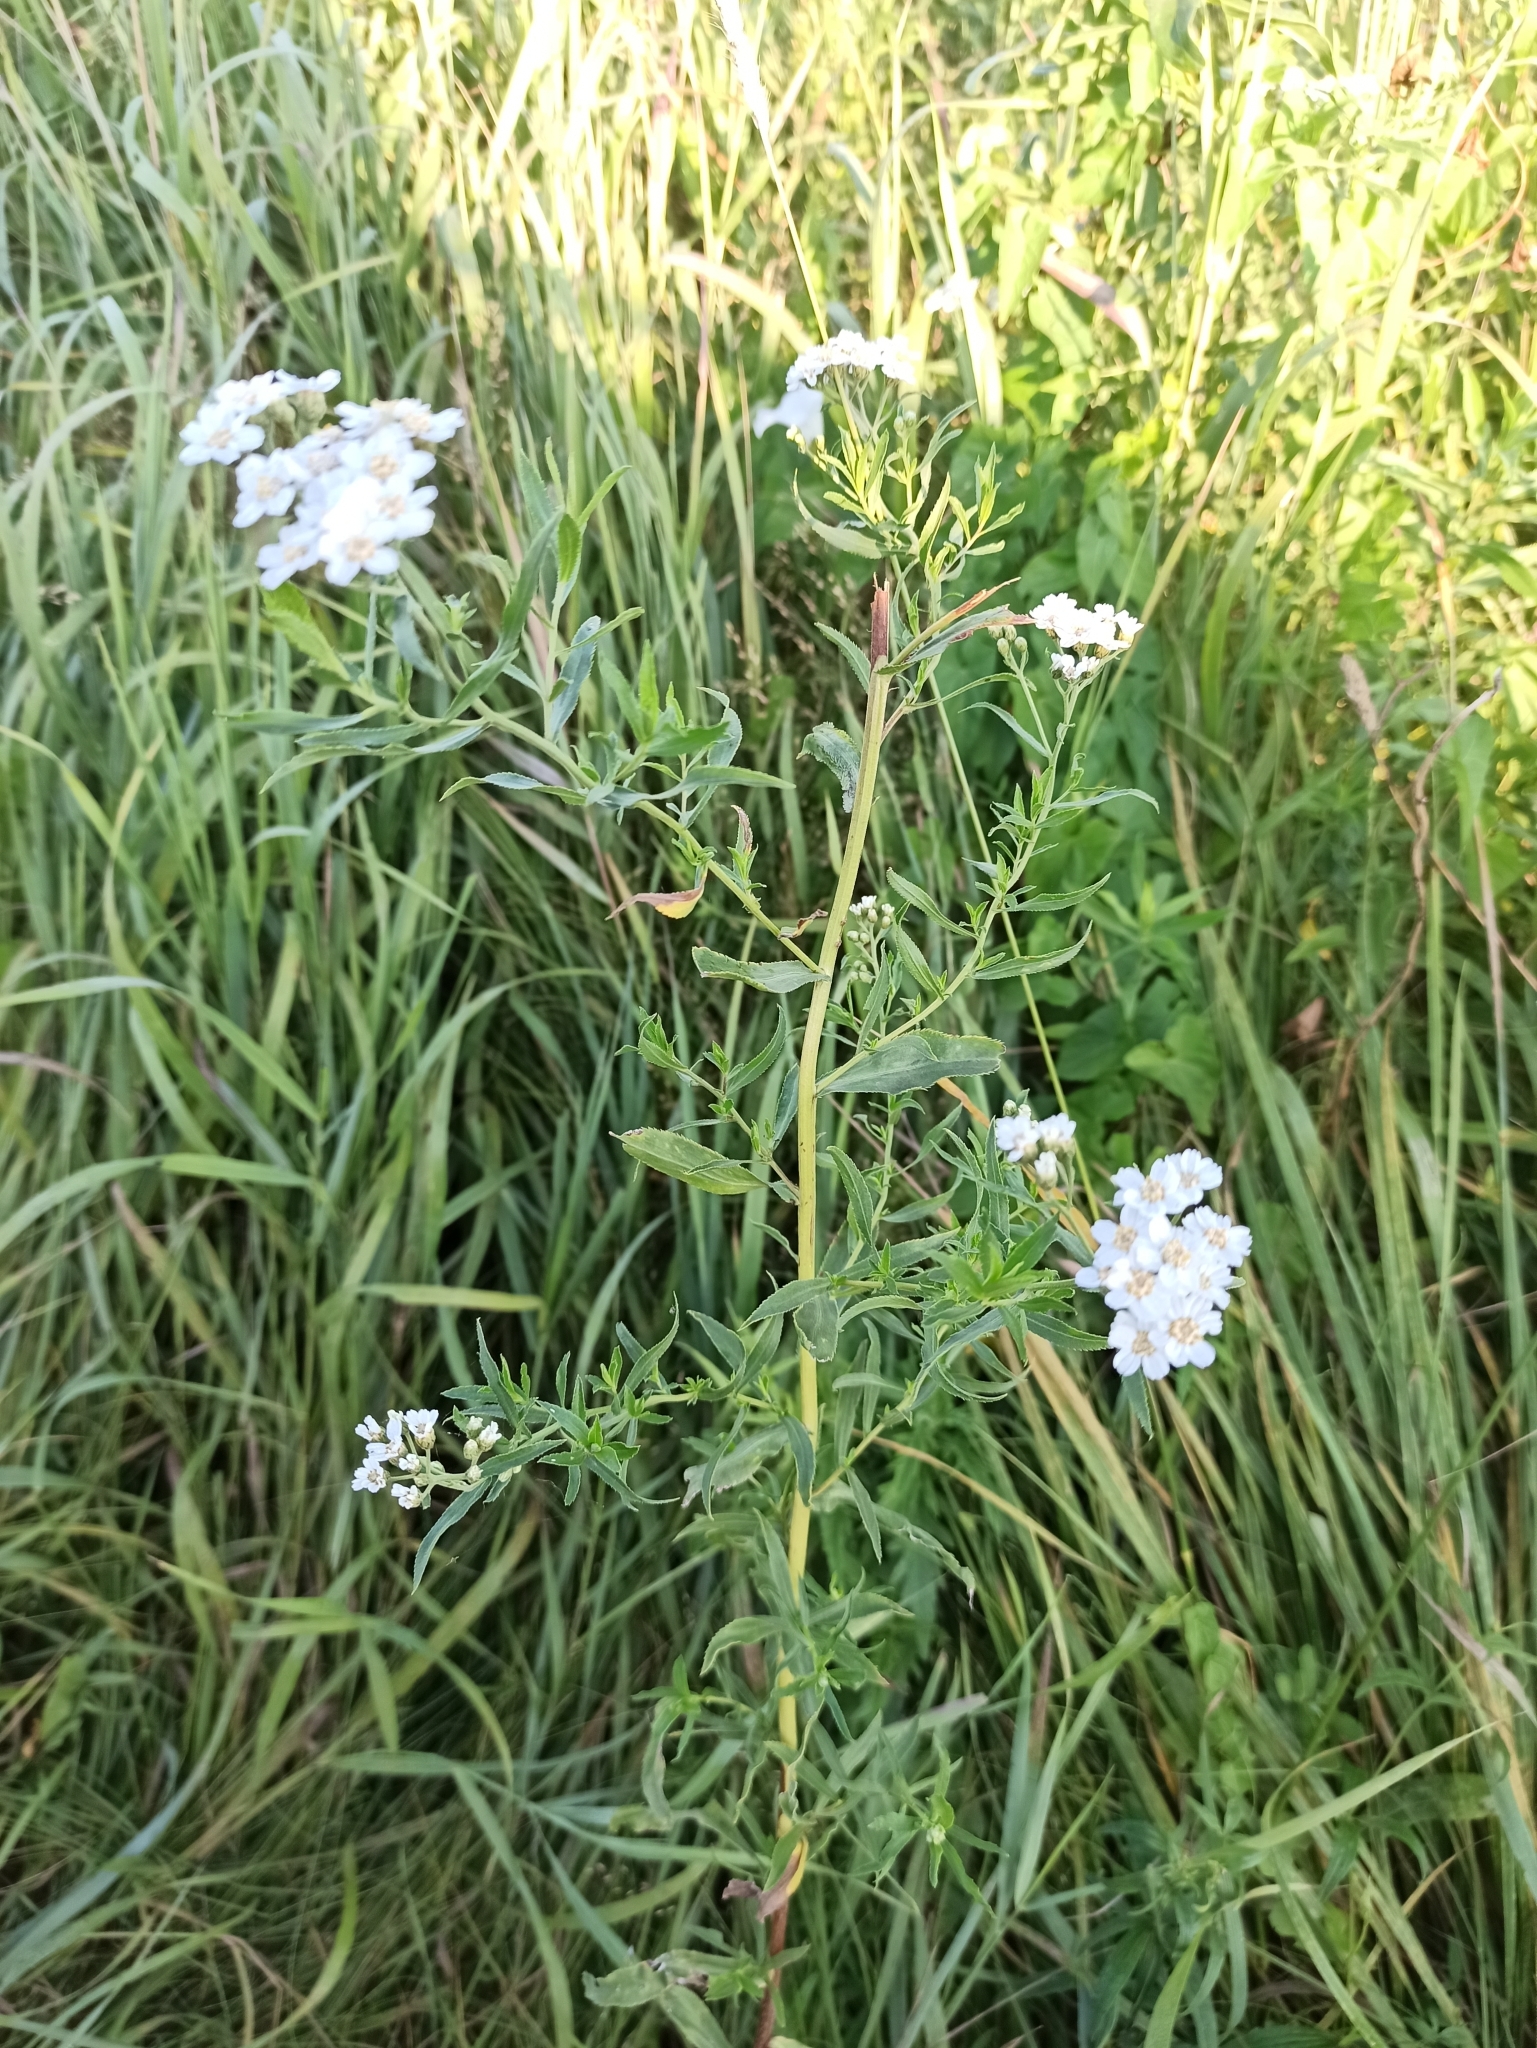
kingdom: Plantae
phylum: Tracheophyta
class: Magnoliopsida
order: Asterales
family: Asteraceae
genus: Achillea
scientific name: Achillea salicifolia
